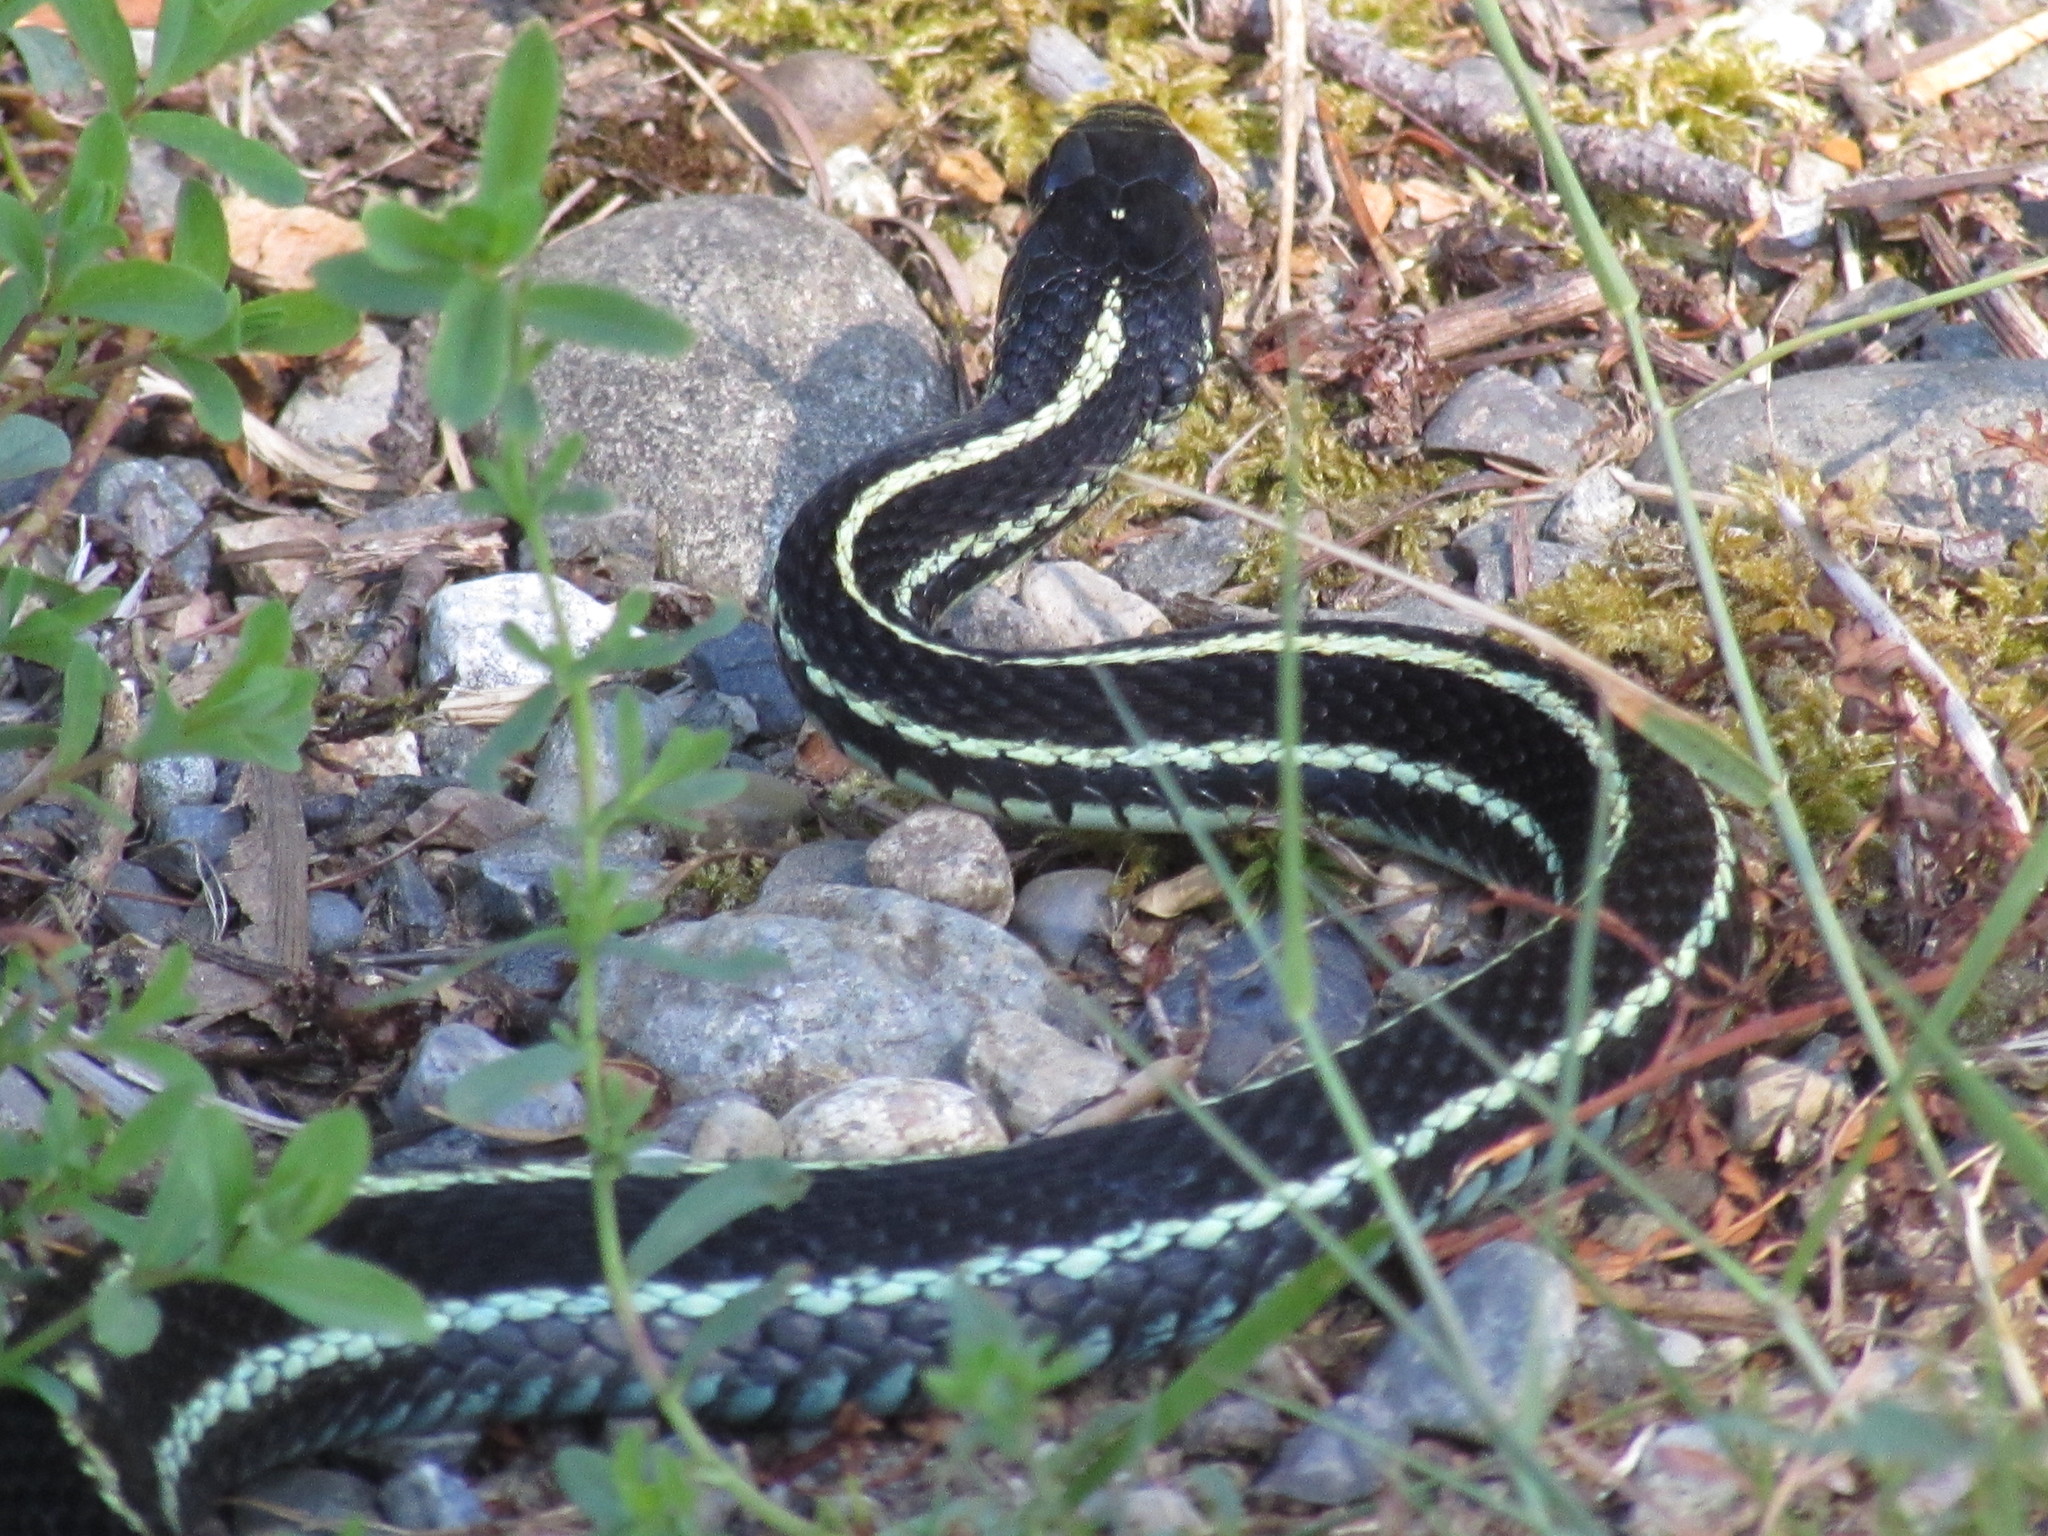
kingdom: Animalia
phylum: Chordata
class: Squamata
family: Colubridae
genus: Thamnophis
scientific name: Thamnophis sirtalis
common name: Common garter snake
